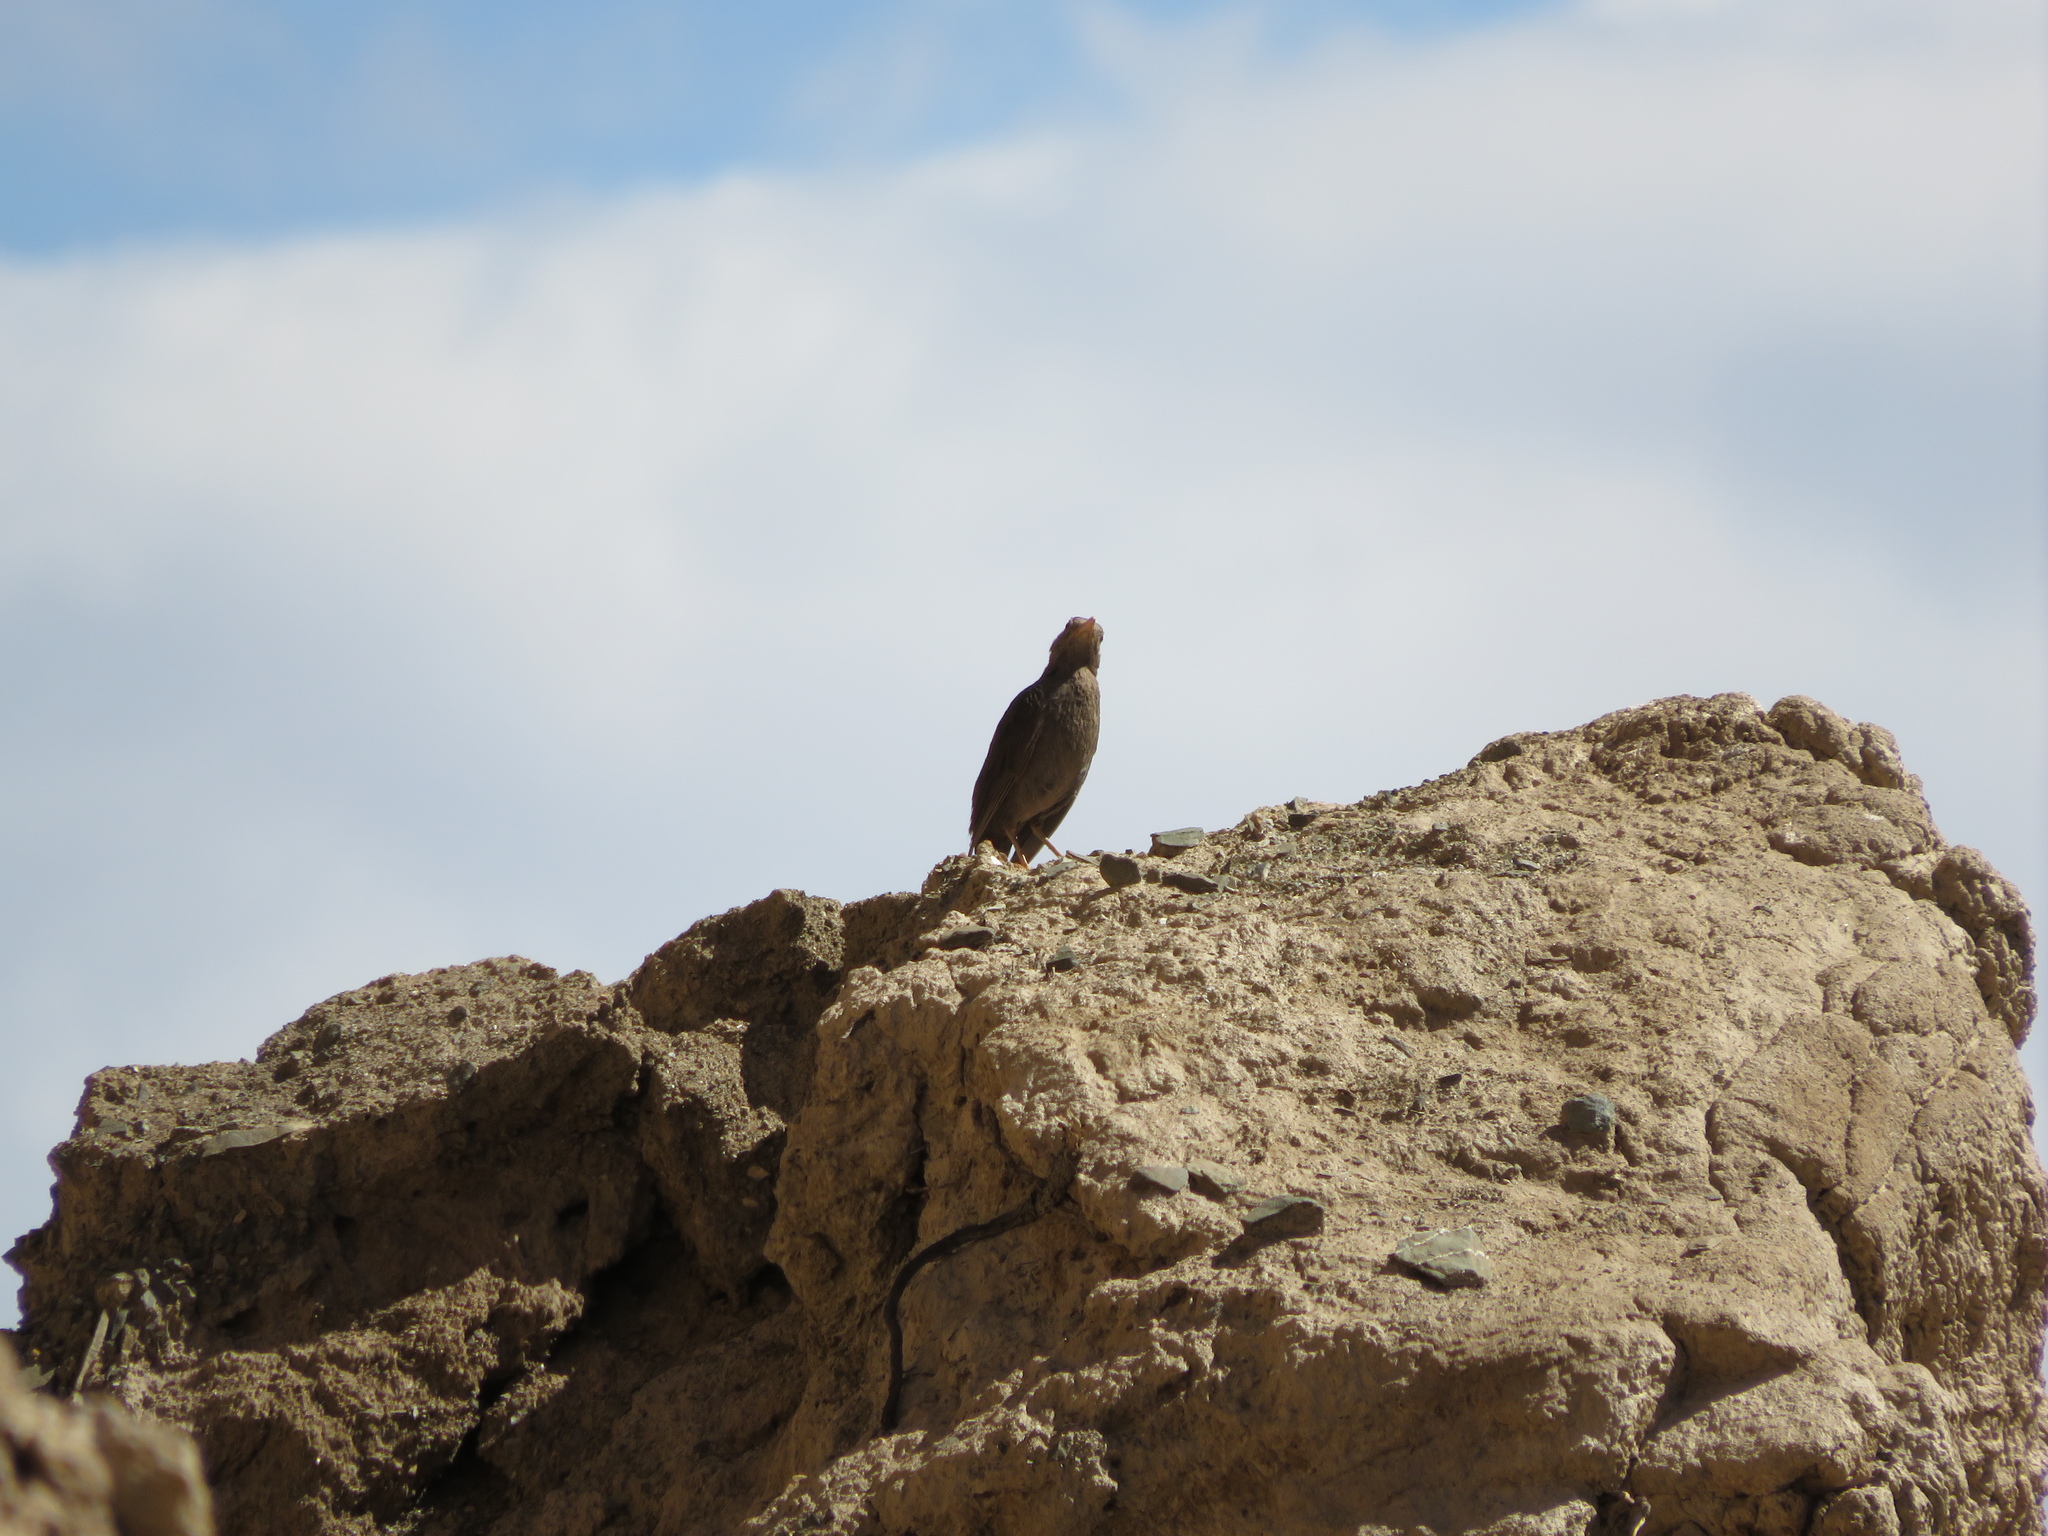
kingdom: Animalia
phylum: Chordata
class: Aves
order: Passeriformes
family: Turdidae
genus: Turdus
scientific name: Turdus chiguanco
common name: Chiguanco thrush
